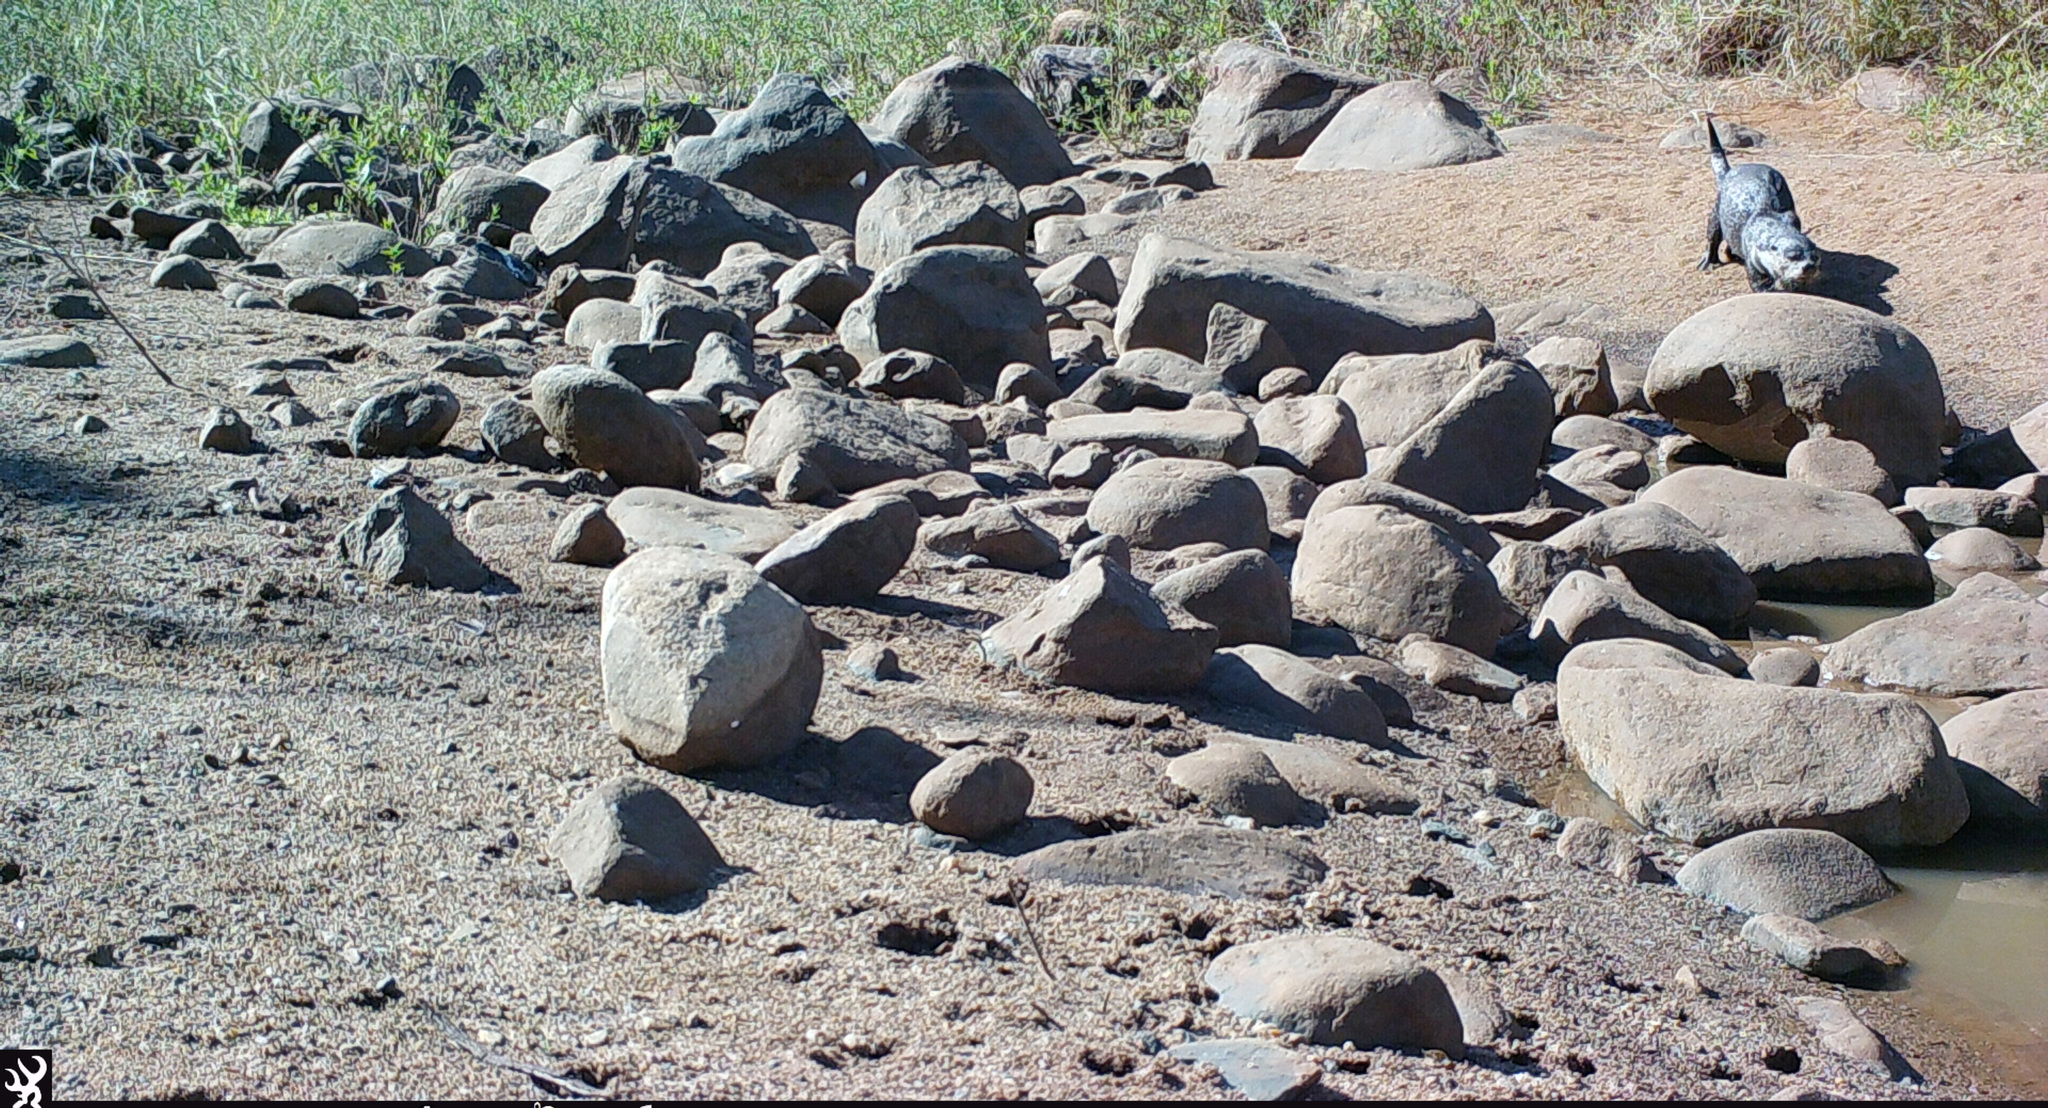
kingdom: Animalia
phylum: Chordata
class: Mammalia
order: Carnivora
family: Mustelidae
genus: Aonyx
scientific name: Aonyx capensis
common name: African clawless otter
